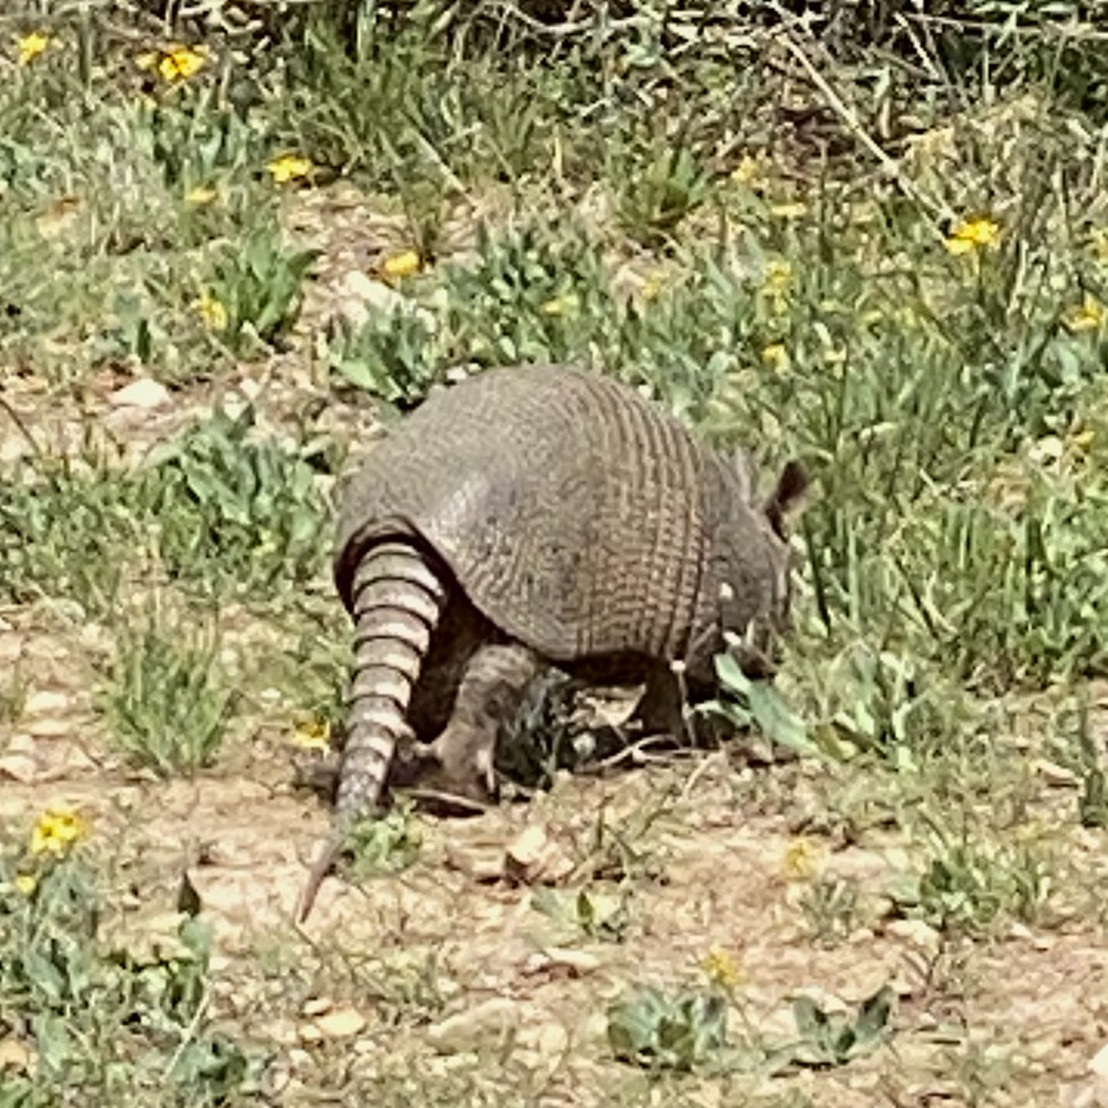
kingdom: Animalia
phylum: Chordata
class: Mammalia
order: Cingulata
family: Dasypodidae
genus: Dasypus
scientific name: Dasypus novemcinctus
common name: Nine-banded armadillo
